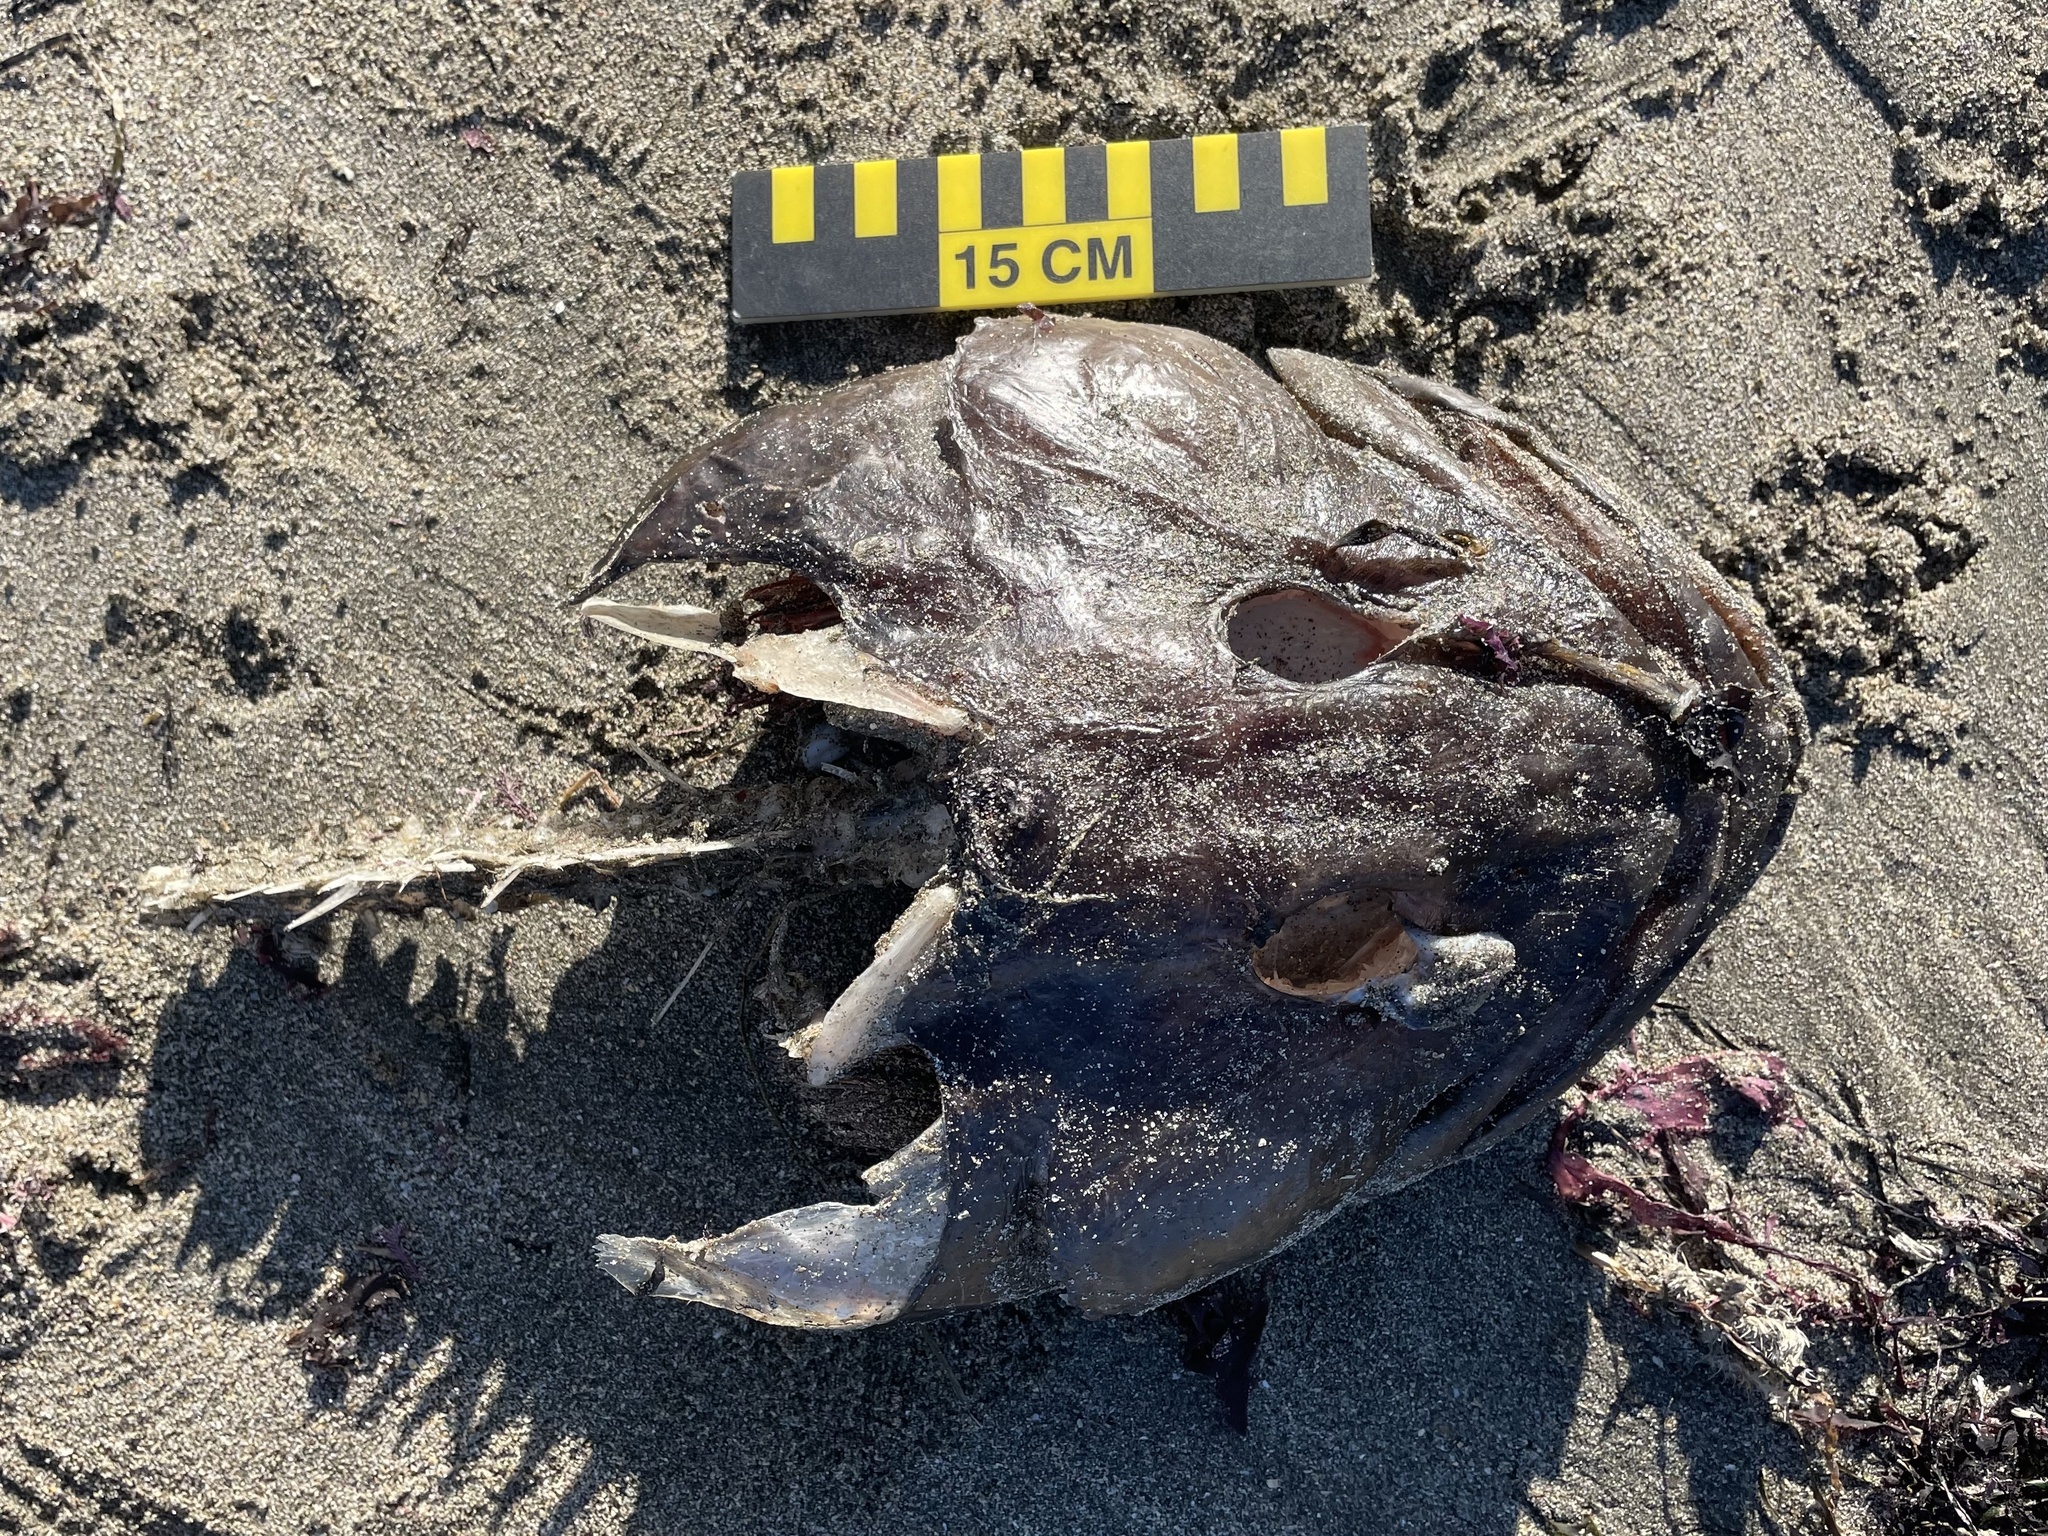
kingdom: Animalia
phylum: Chordata
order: Scorpaeniformes
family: Hexagrammidae
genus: Ophiodon
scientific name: Ophiodon elongatus
